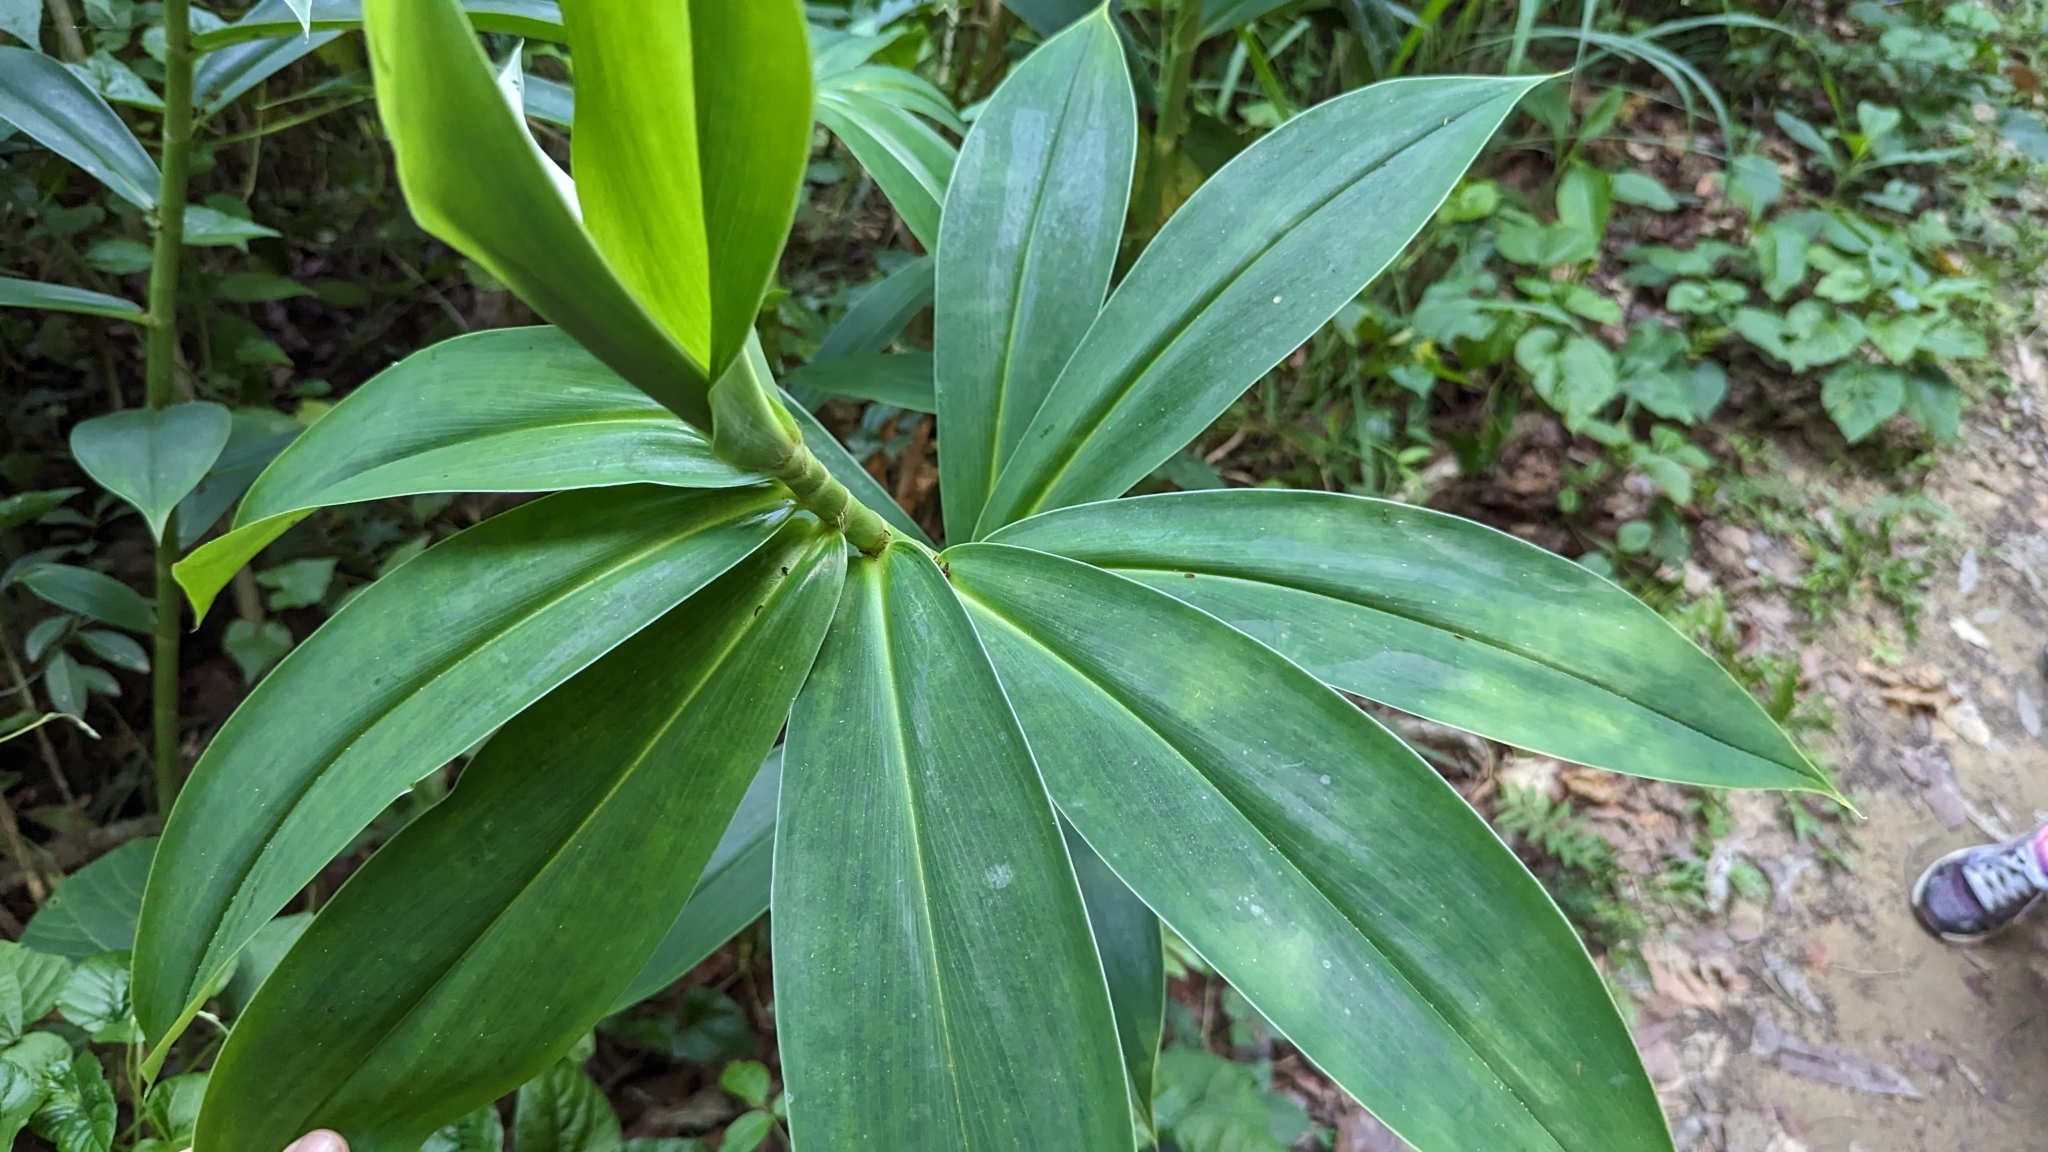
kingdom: Plantae
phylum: Tracheophyta
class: Liliopsida
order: Zingiberales
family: Costaceae
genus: Hellenia
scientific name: Hellenia speciosa
